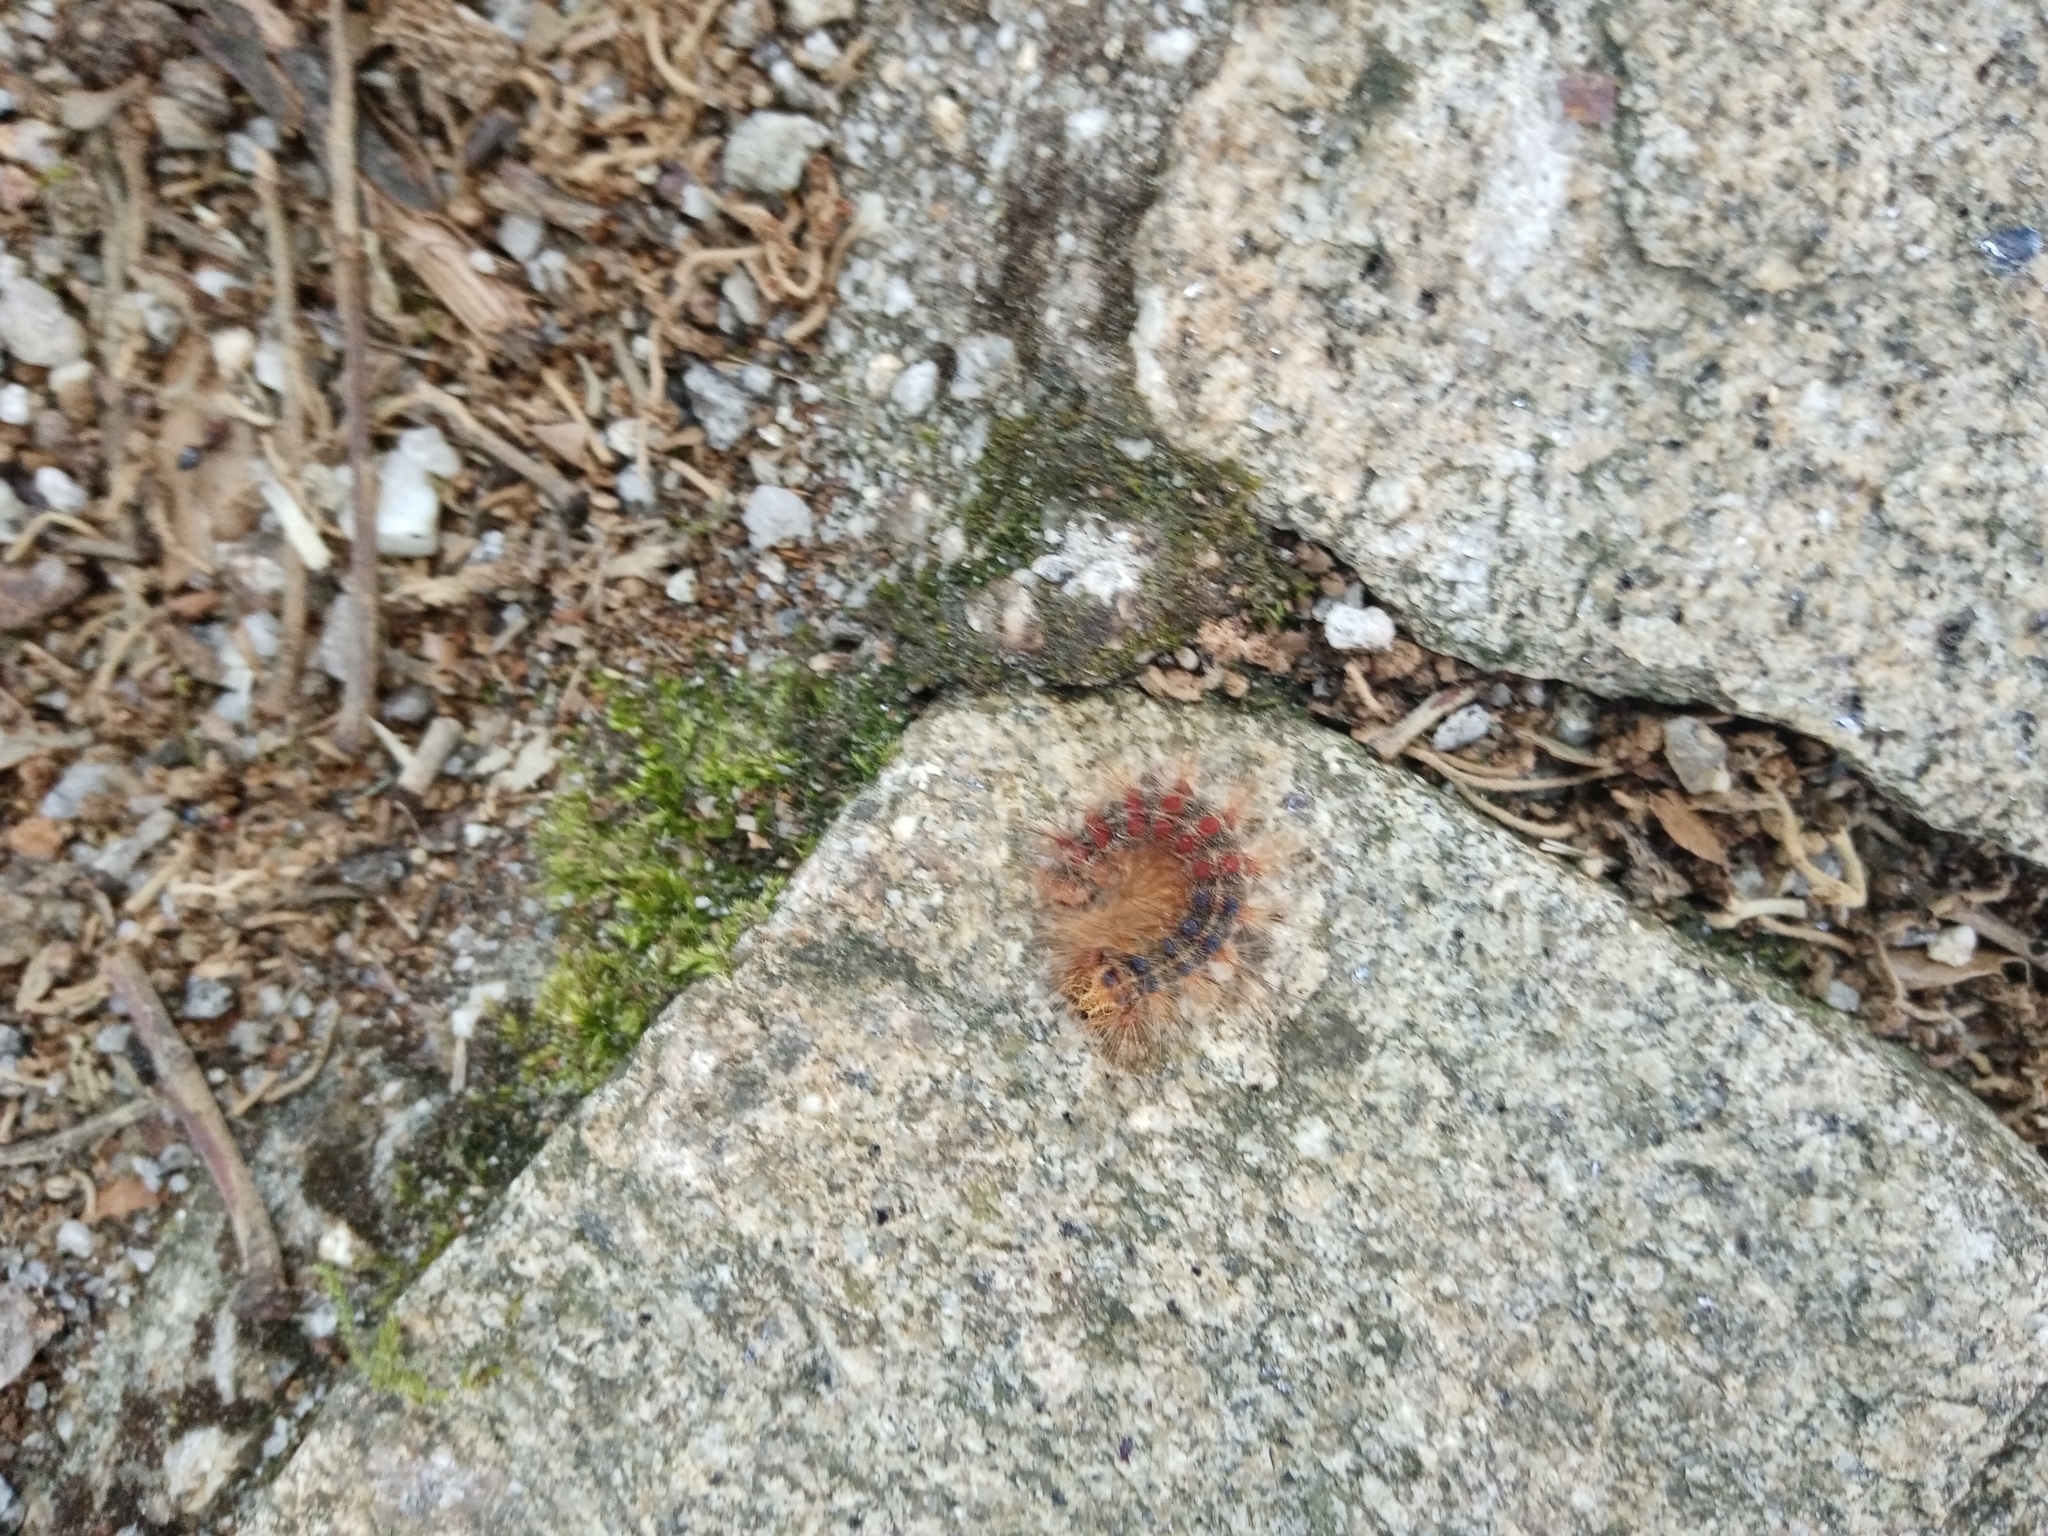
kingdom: Animalia
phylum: Arthropoda
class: Insecta
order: Lepidoptera
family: Erebidae
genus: Lymantria
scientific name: Lymantria dispar
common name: Gypsy moth
